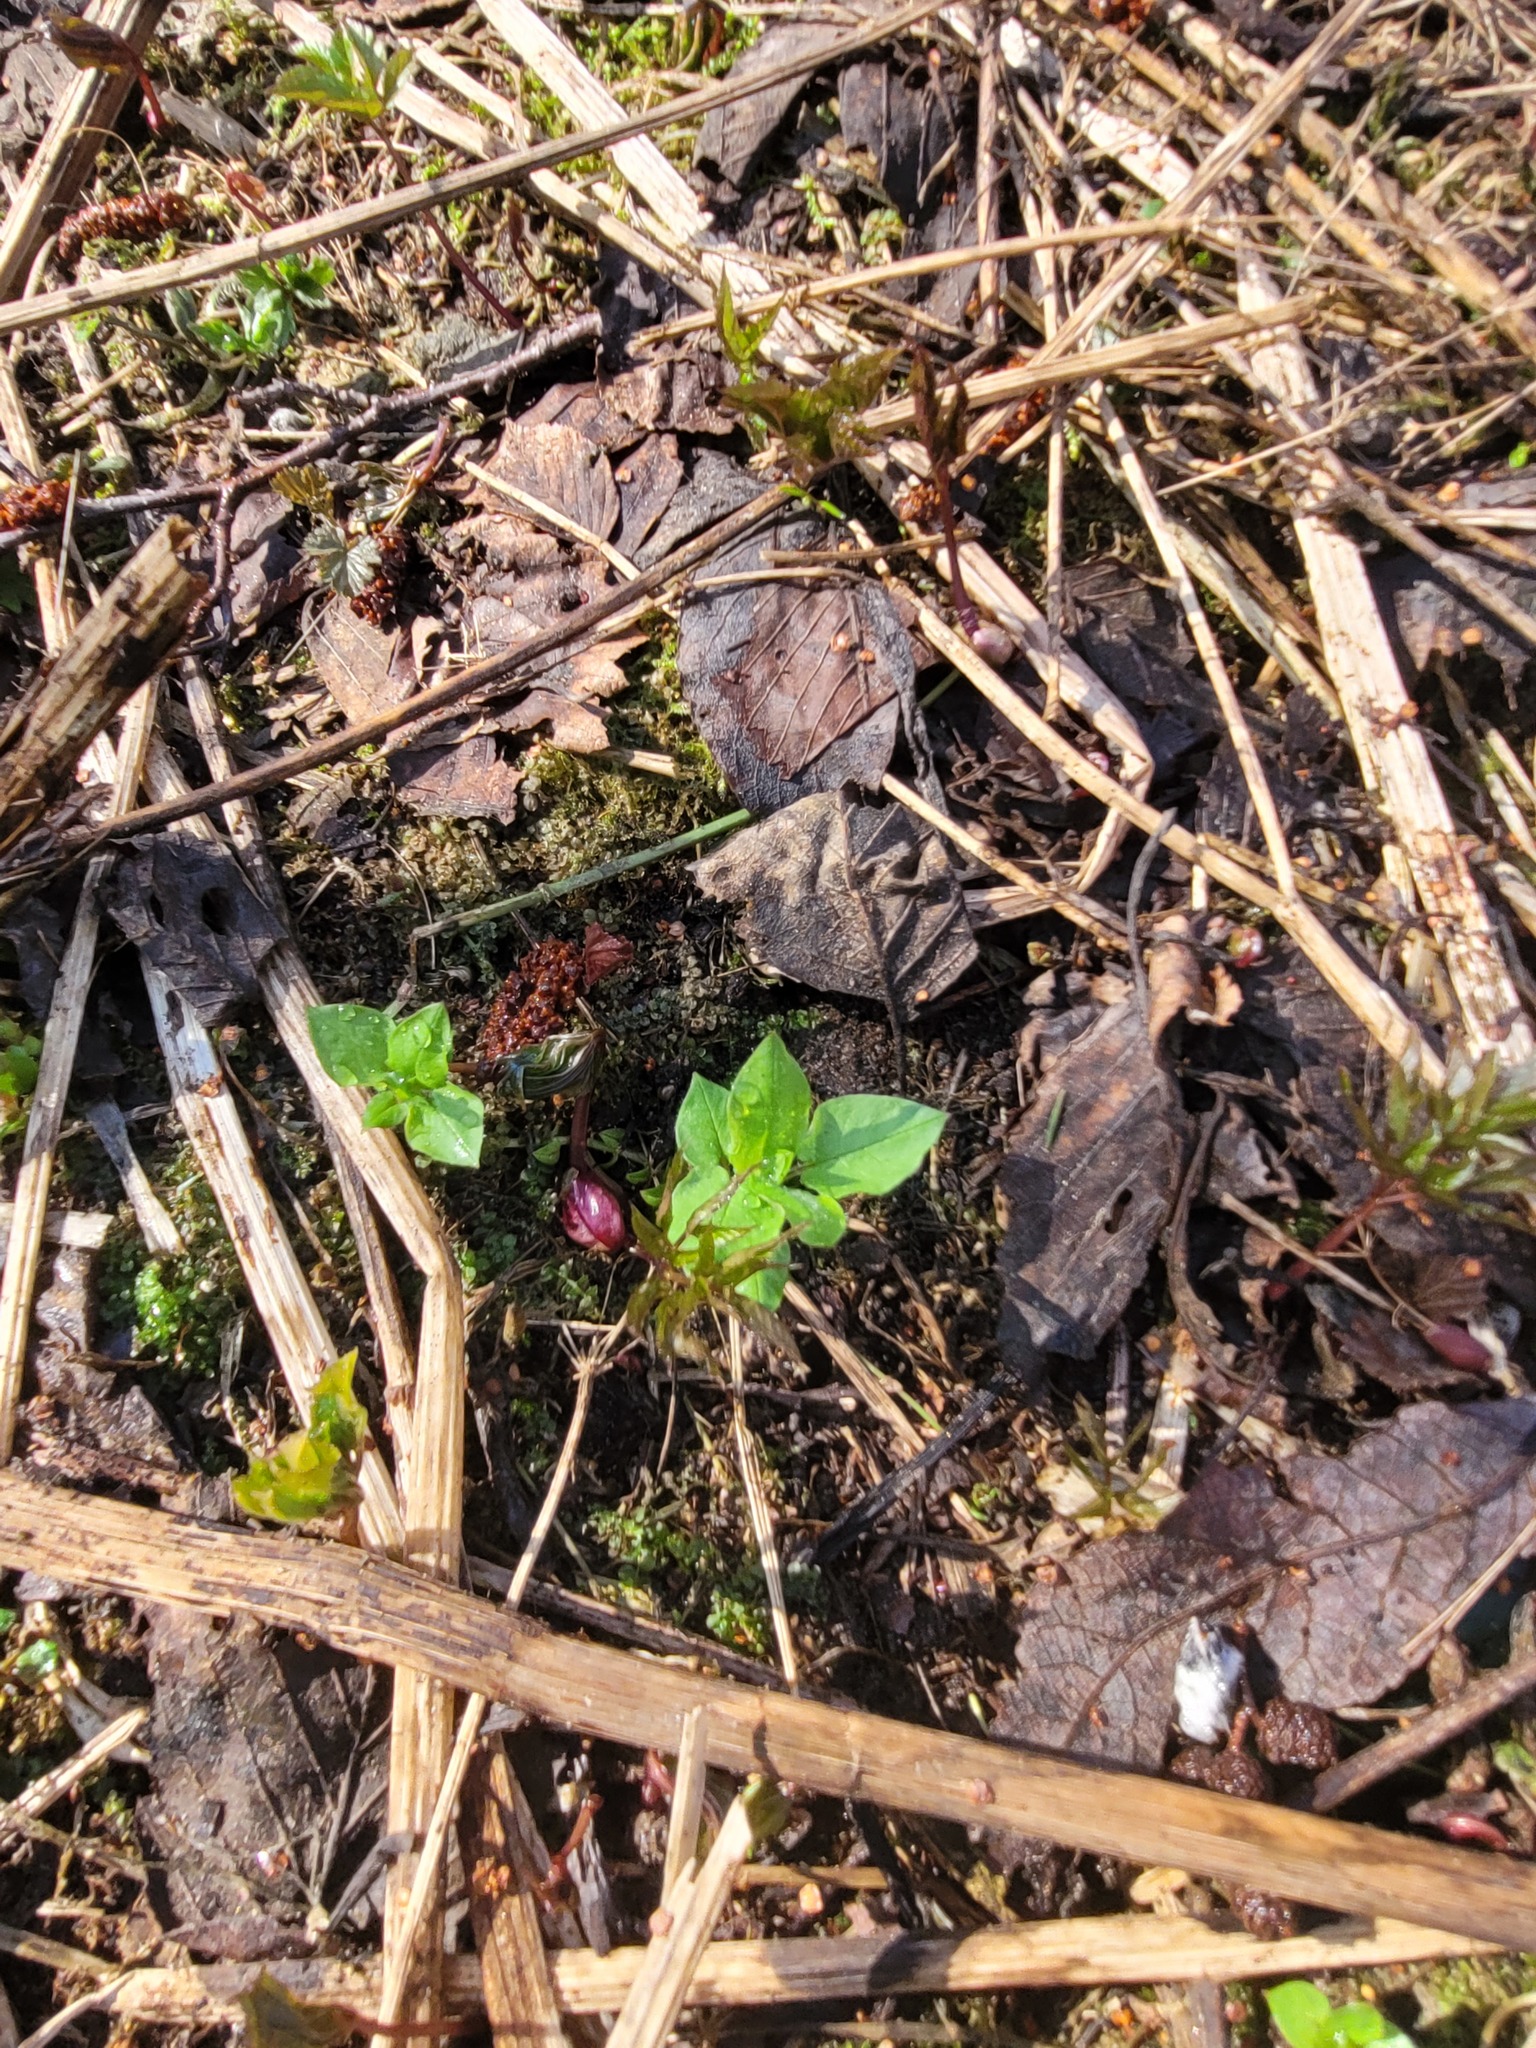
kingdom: Plantae
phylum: Tracheophyta
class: Magnoliopsida
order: Caryophyllales
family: Caryophyllaceae
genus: Stellaria
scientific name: Stellaria nemorum
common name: Wood stitchwort
